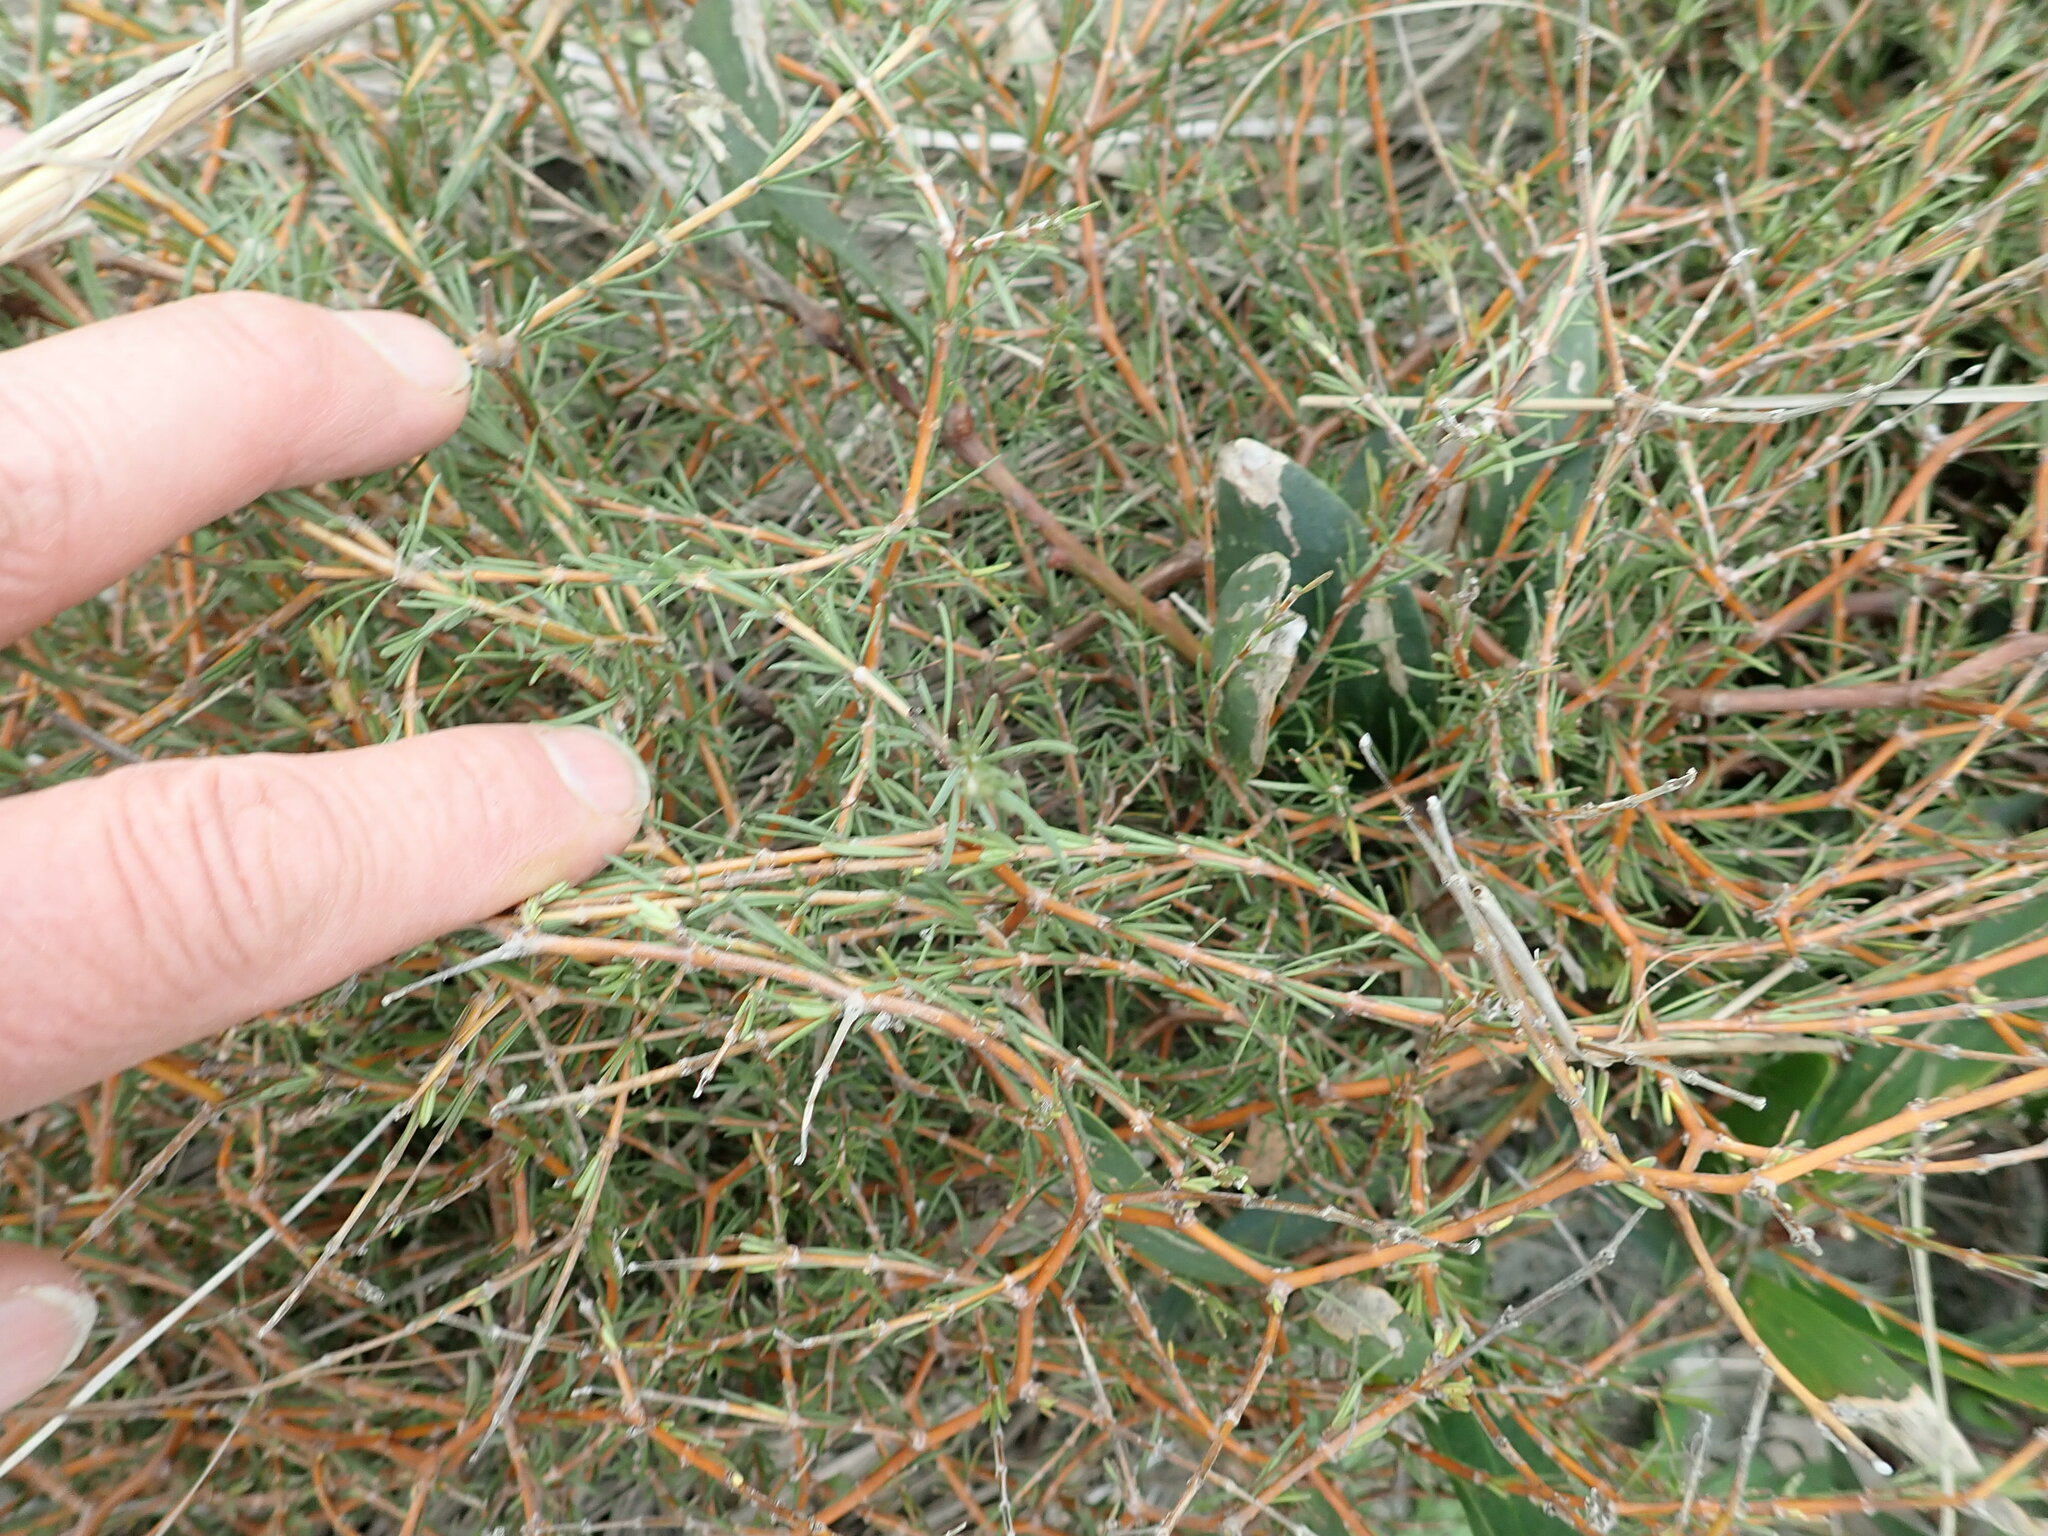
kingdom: Plantae
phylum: Tracheophyta
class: Magnoliopsida
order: Gentianales
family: Rubiaceae
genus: Coprosma
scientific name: Coprosma acerosa
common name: Sand coprosma
